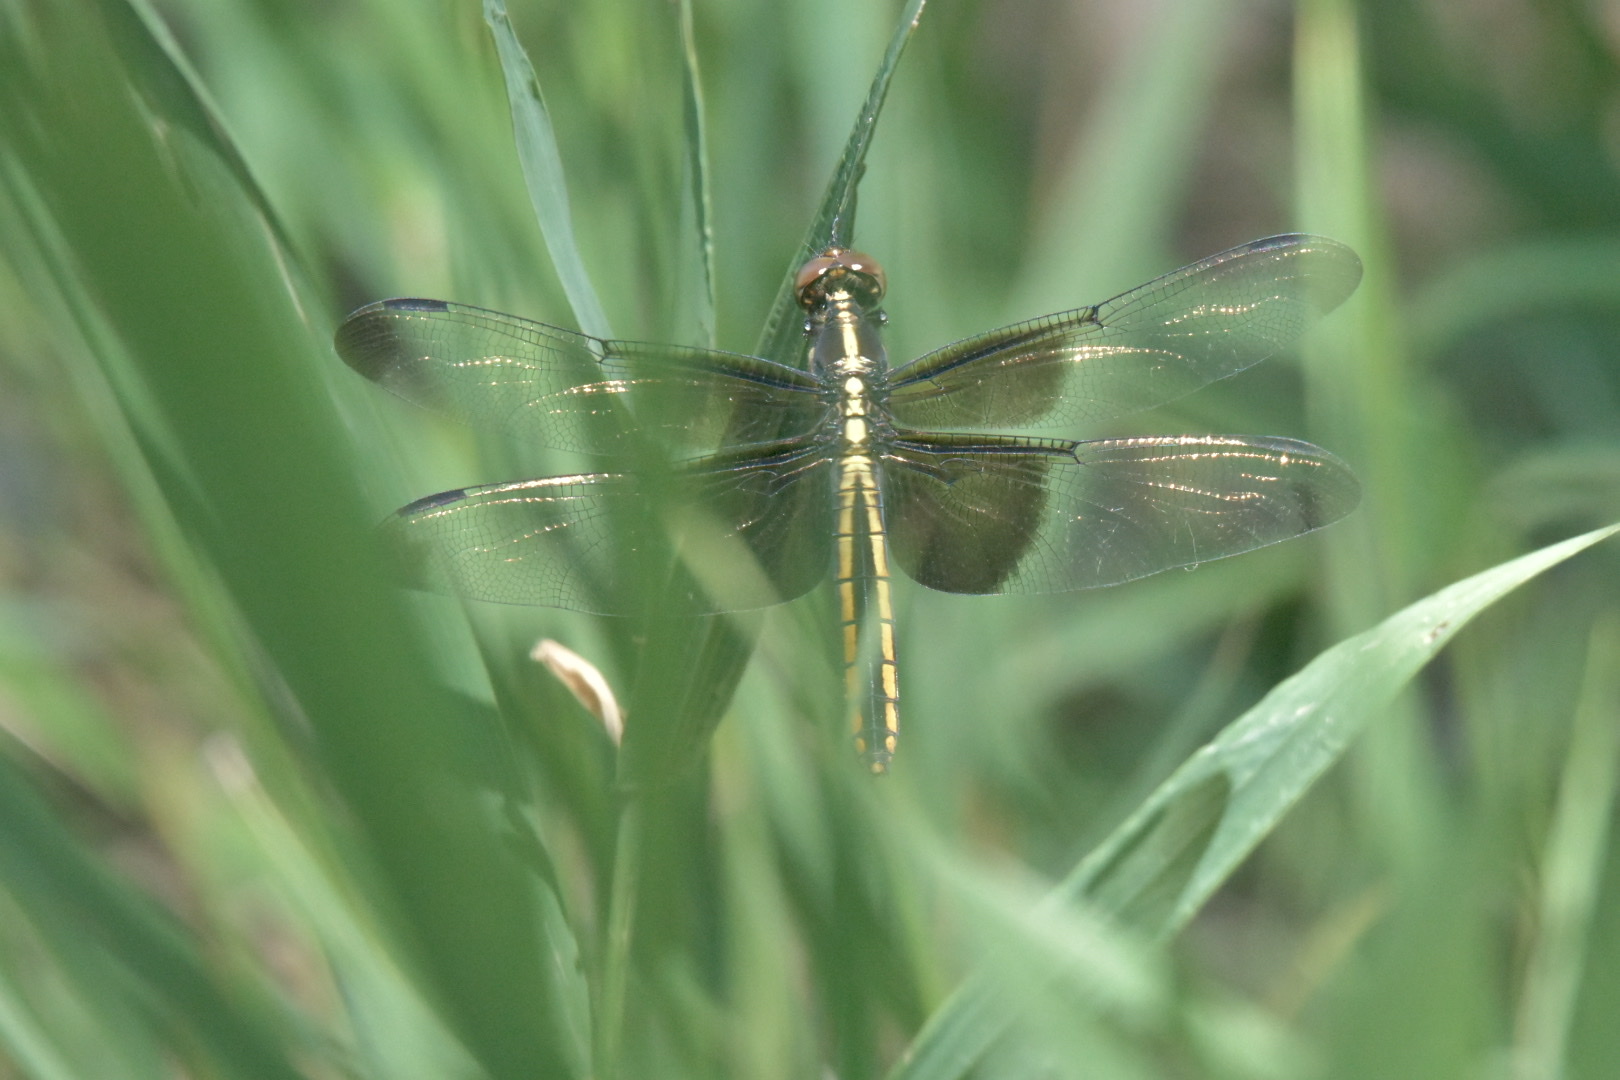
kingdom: Animalia
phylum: Arthropoda
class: Insecta
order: Odonata
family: Libellulidae
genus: Libellula
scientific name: Libellula luctuosa
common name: Widow skimmer
